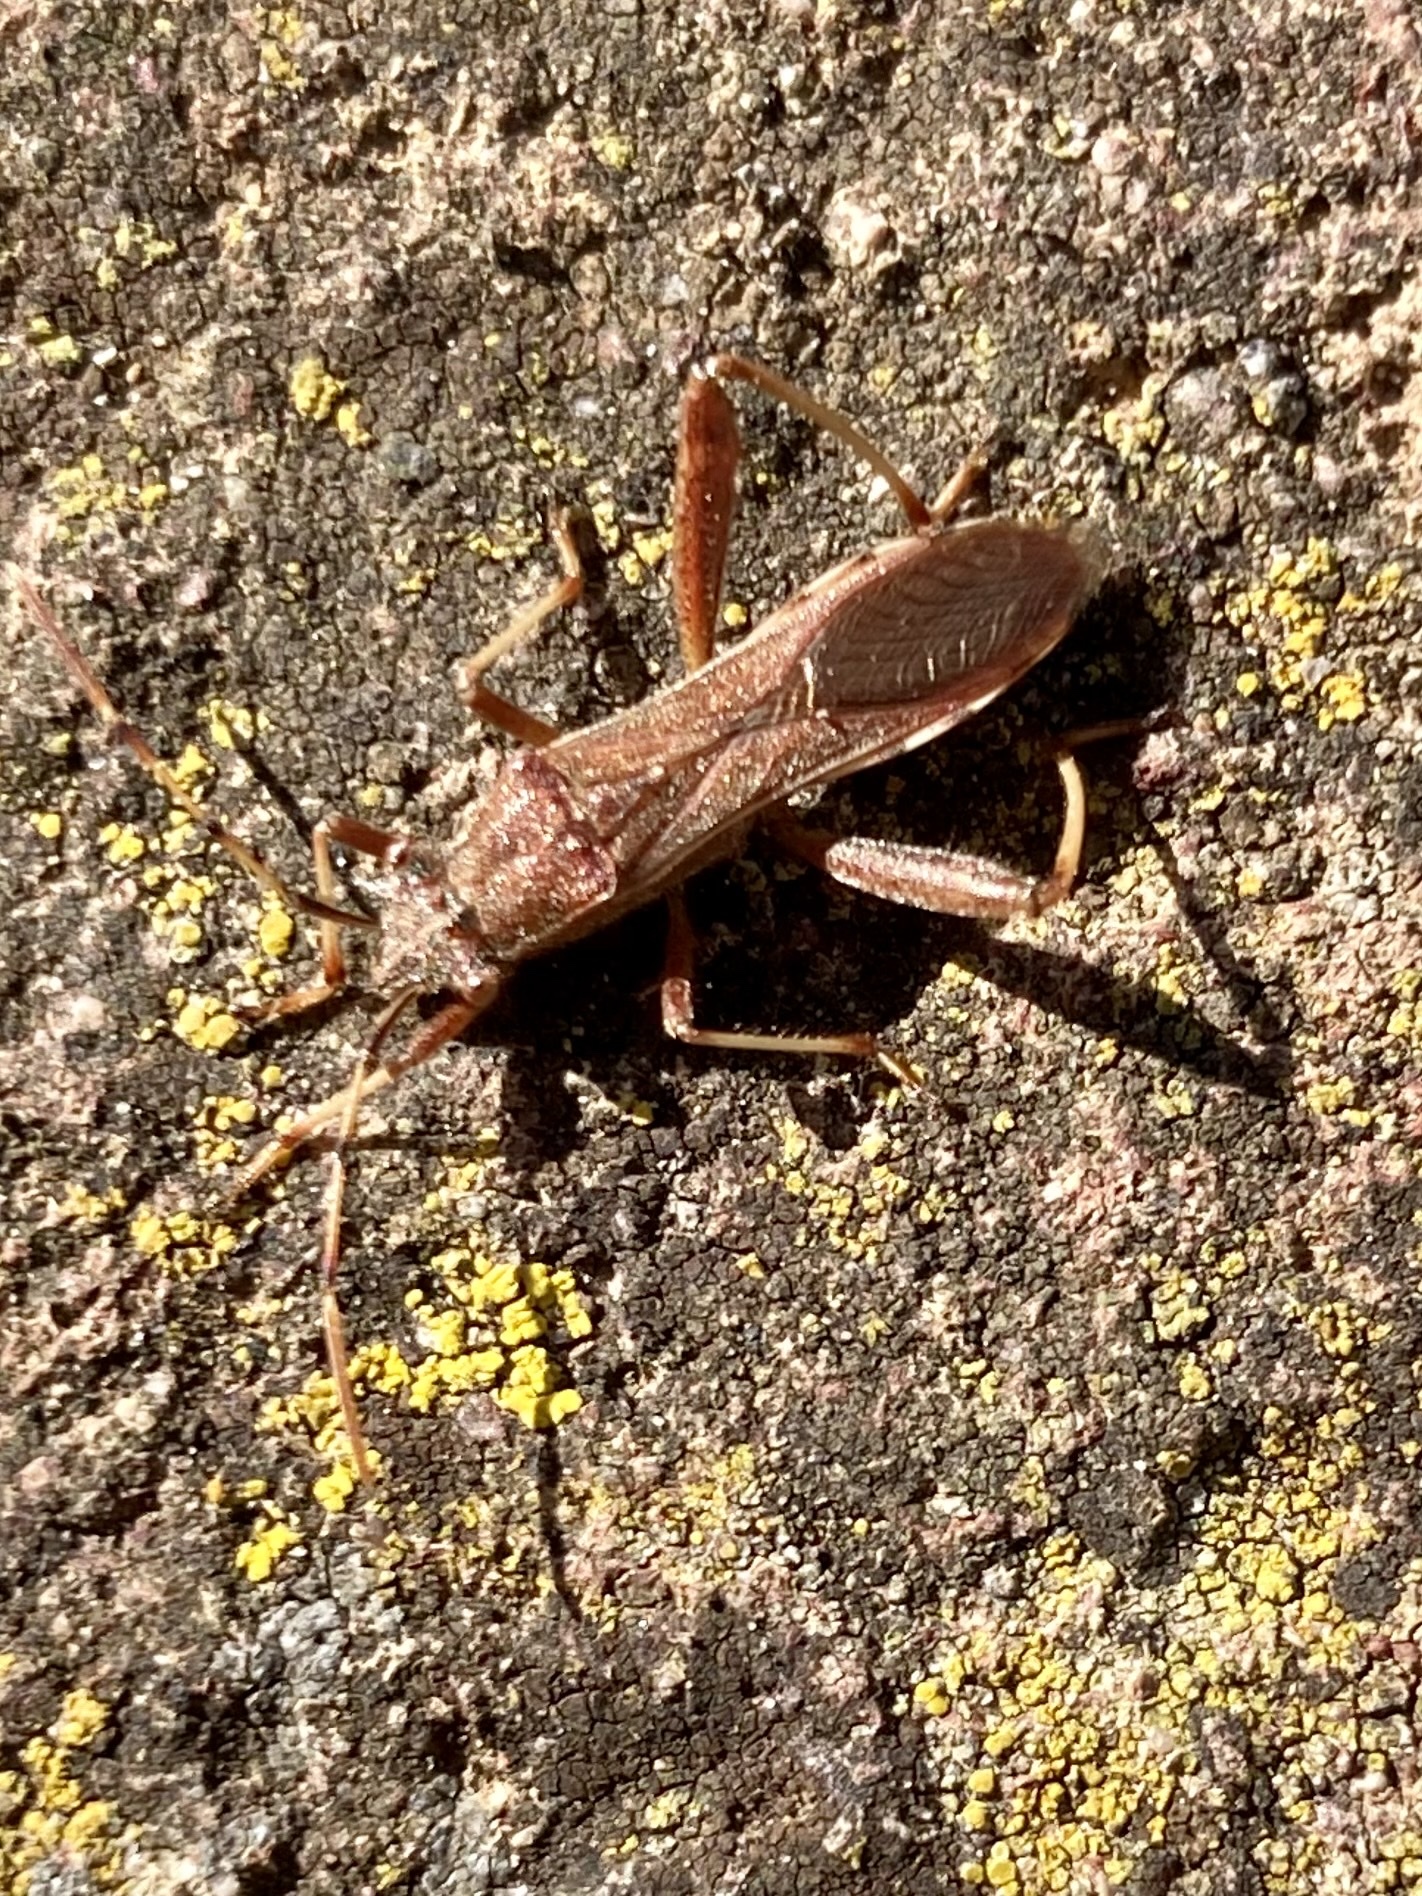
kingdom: Animalia
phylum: Arthropoda
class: Insecta
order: Hemiptera
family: Alydidae
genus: Camptopus
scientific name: Camptopus lateralis
